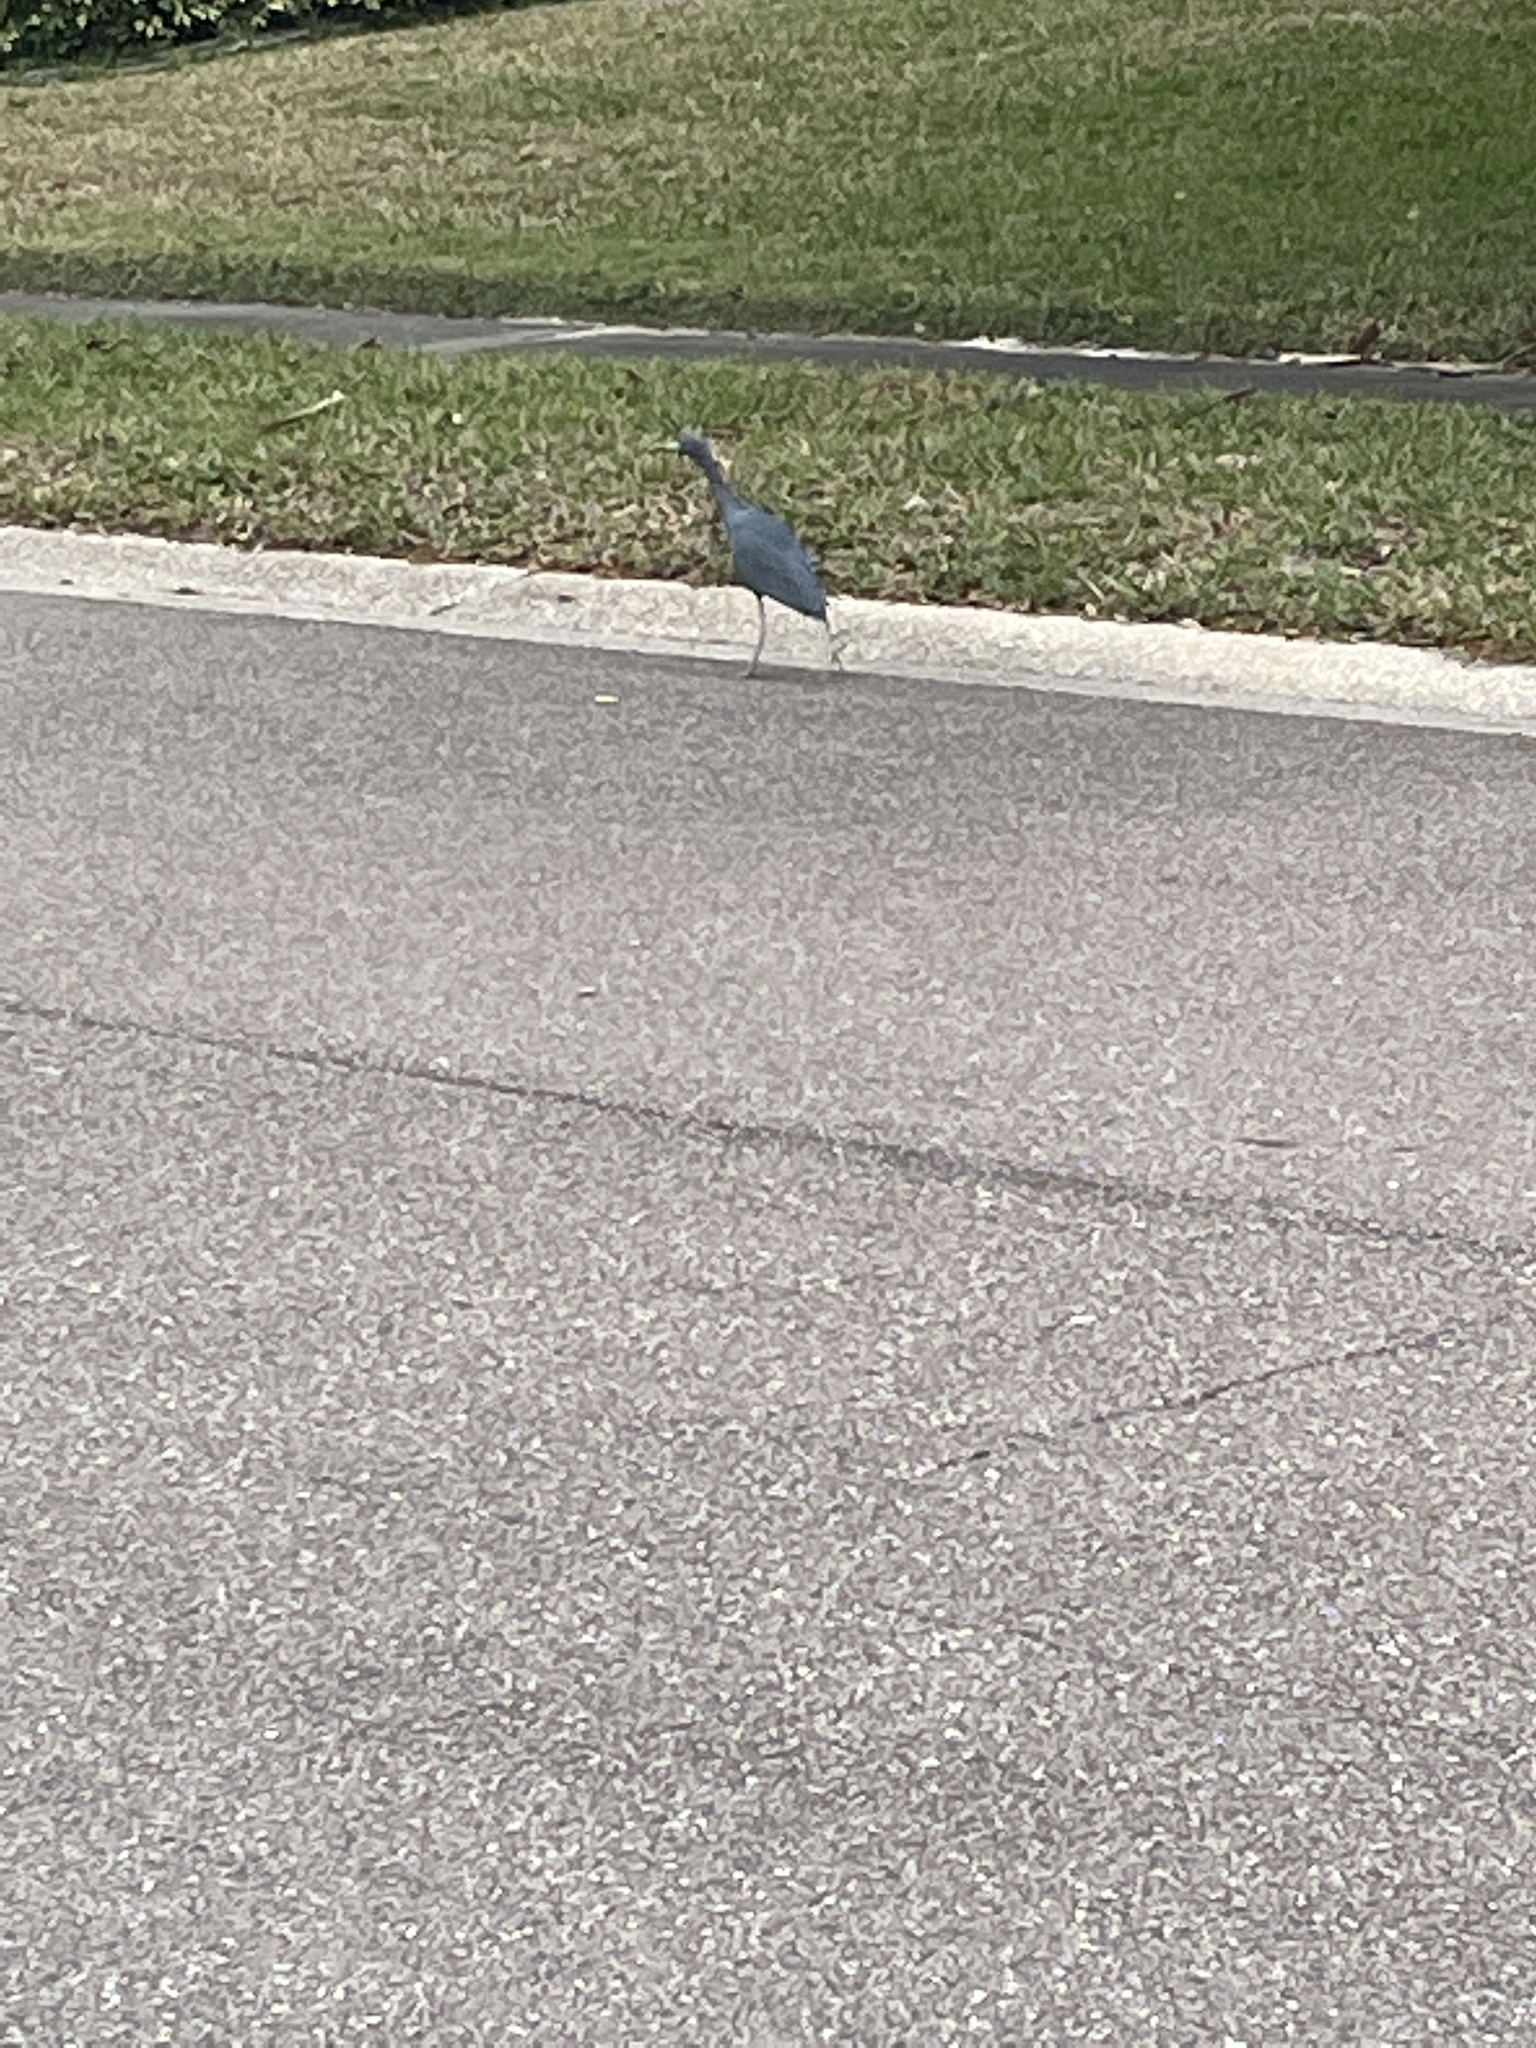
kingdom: Animalia
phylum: Chordata
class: Aves
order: Pelecaniformes
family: Ardeidae
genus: Egretta
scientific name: Egretta caerulea
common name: Little blue heron
